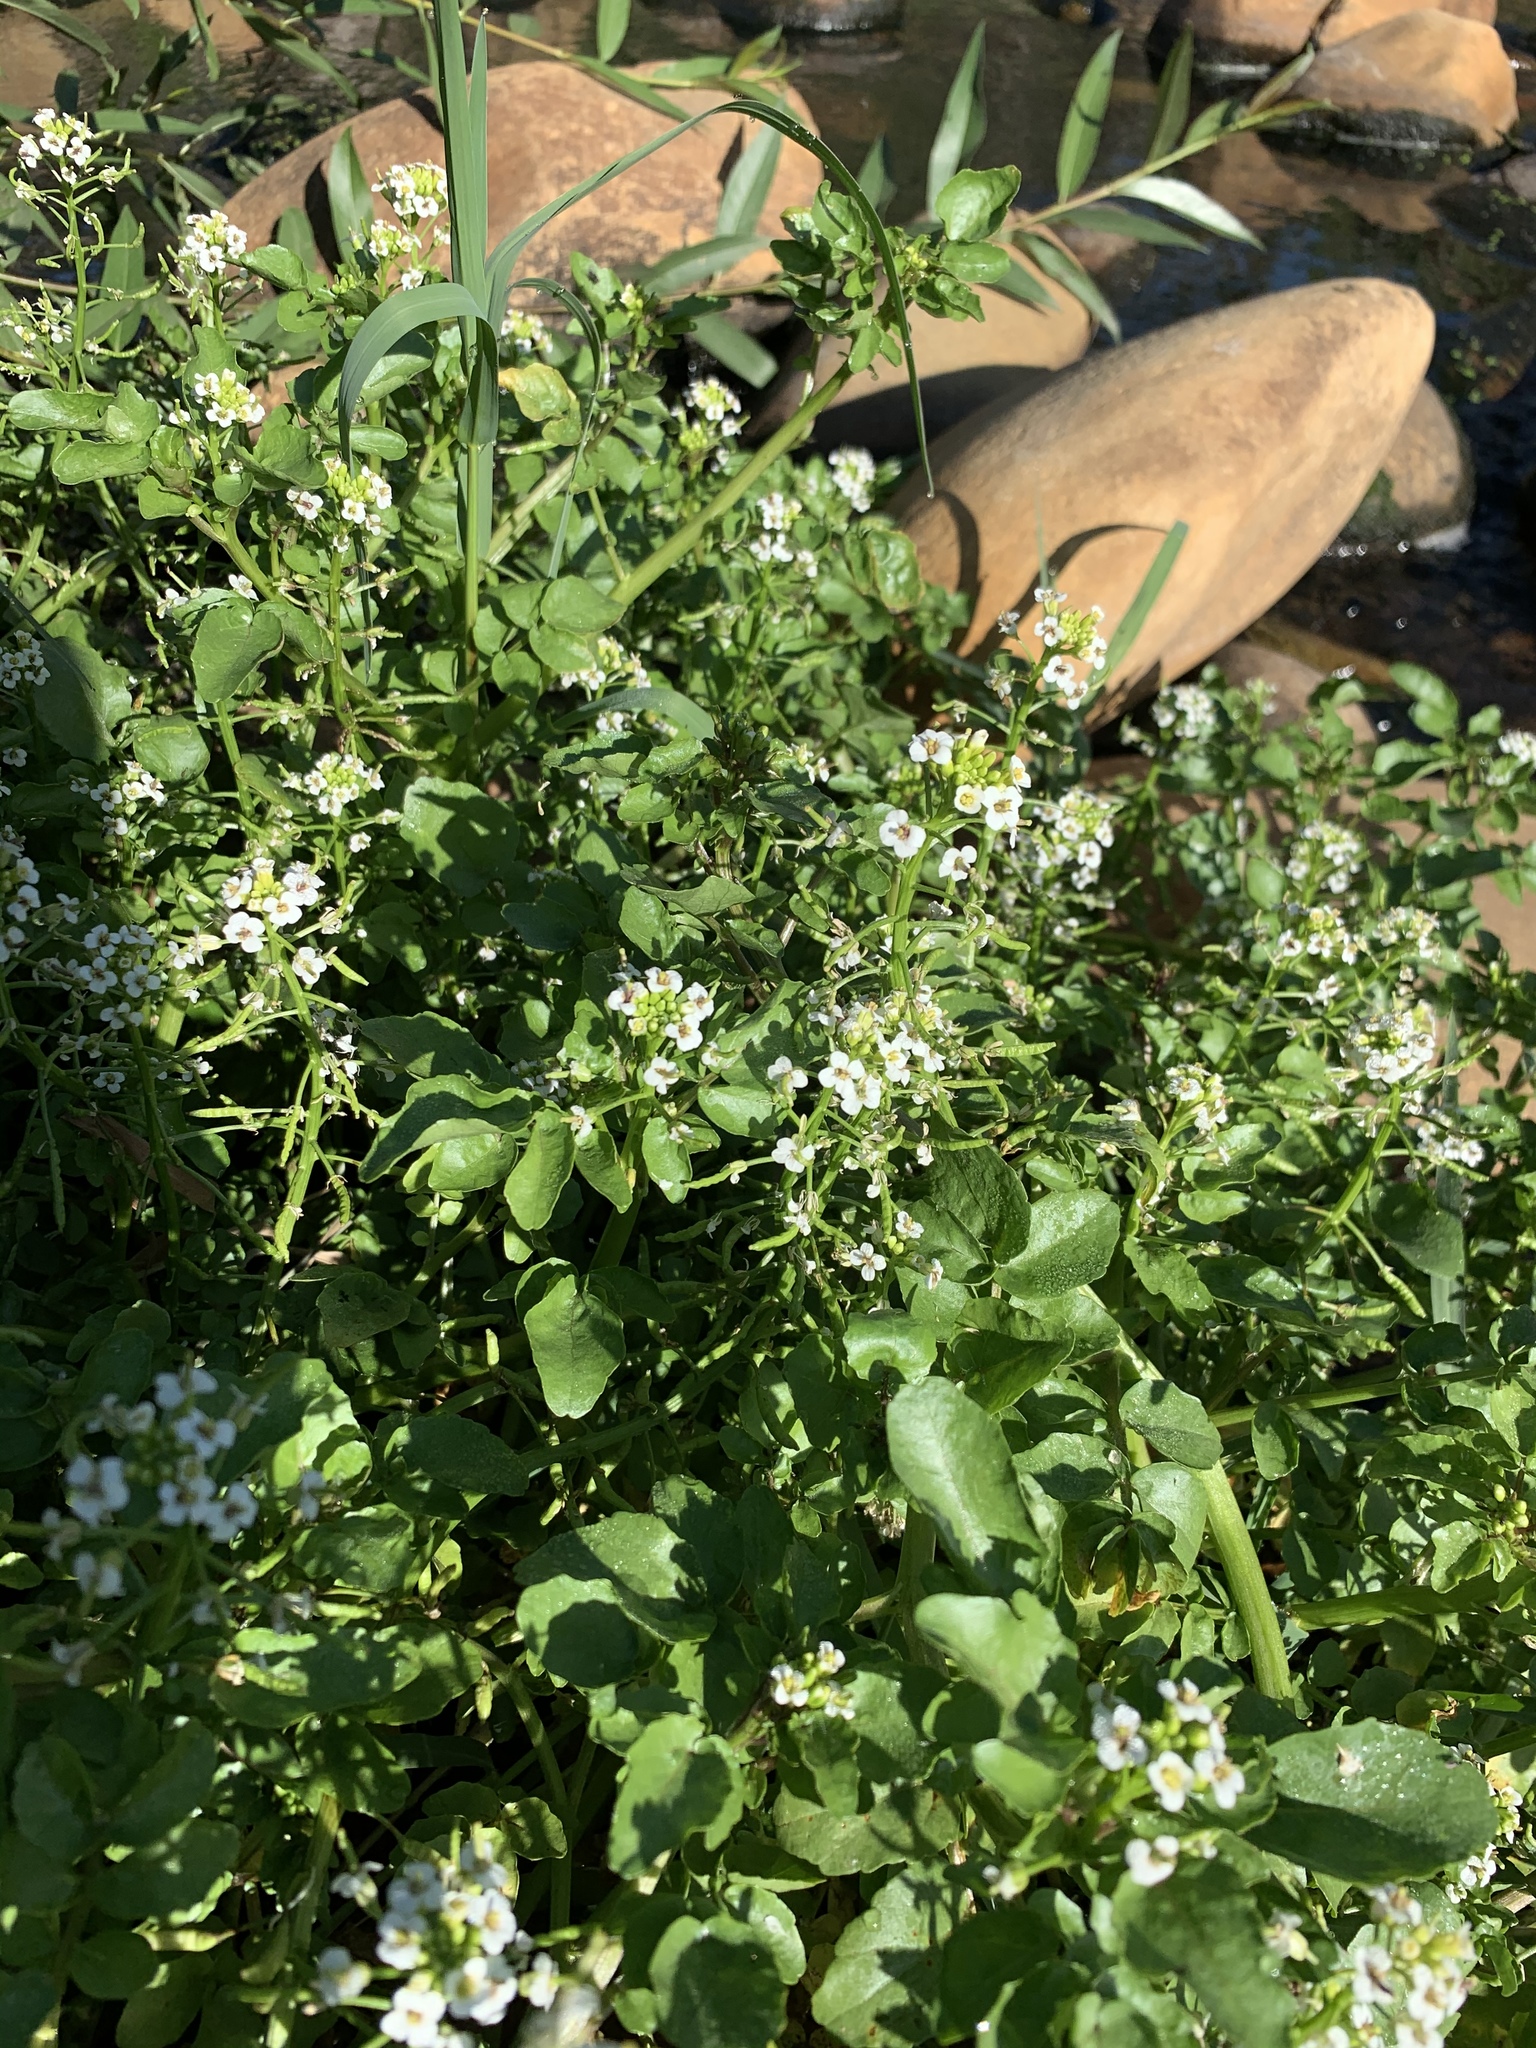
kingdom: Plantae
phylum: Tracheophyta
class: Magnoliopsida
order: Brassicales
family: Brassicaceae
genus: Nasturtium
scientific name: Nasturtium officinale
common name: Watercress
